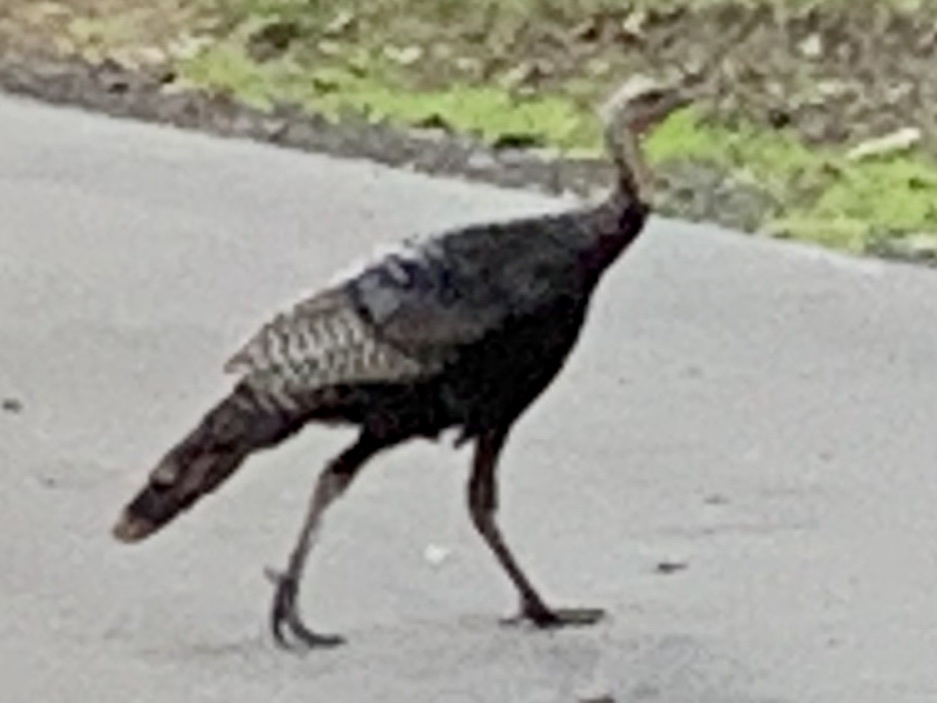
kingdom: Animalia
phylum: Chordata
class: Aves
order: Galliformes
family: Phasianidae
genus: Meleagris
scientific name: Meleagris gallopavo
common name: Wild turkey
